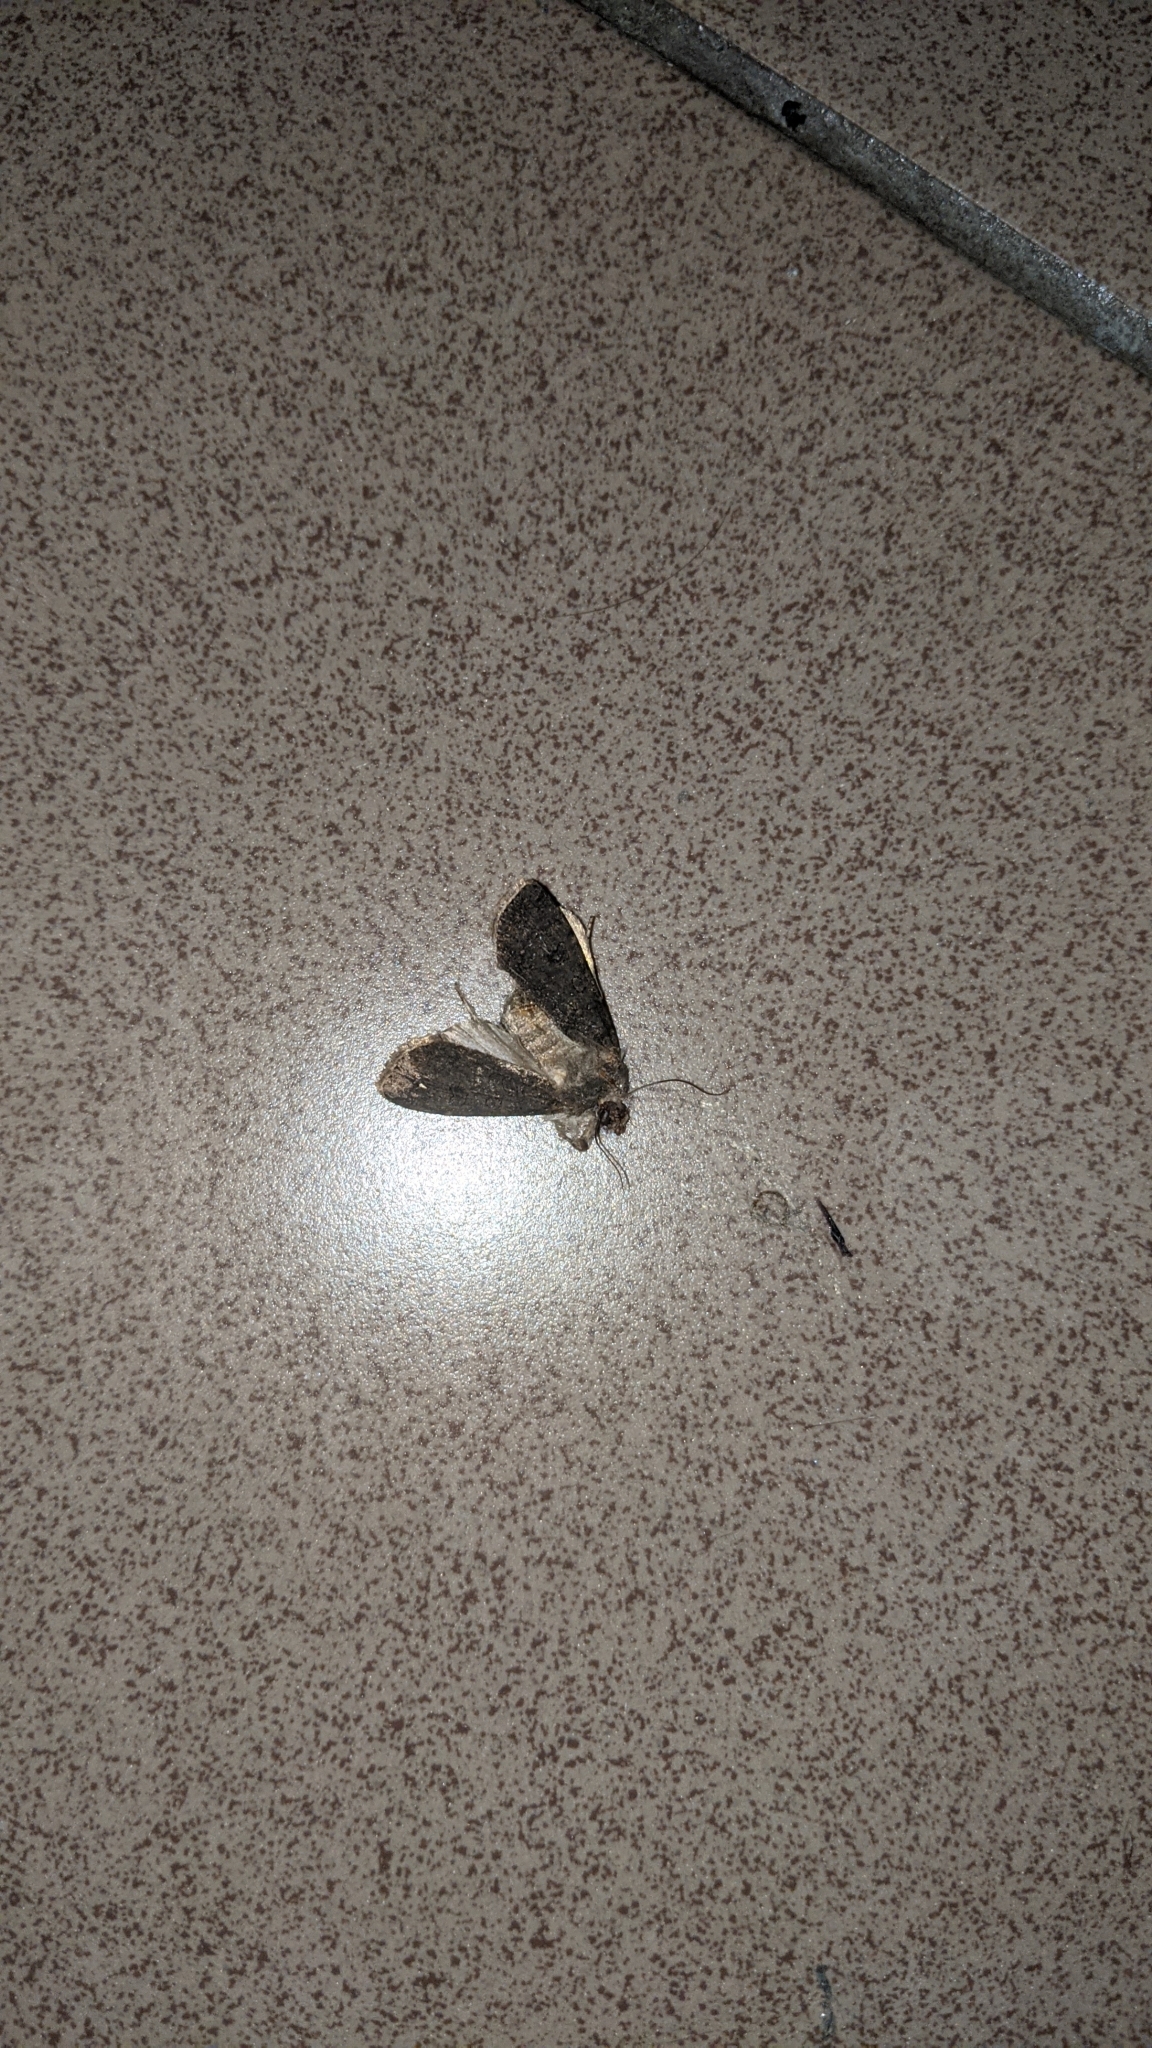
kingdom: Animalia
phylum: Arthropoda
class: Insecta
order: Lepidoptera
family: Noctuidae
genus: Agrotis
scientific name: Agrotis segetum
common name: Turnip moth
